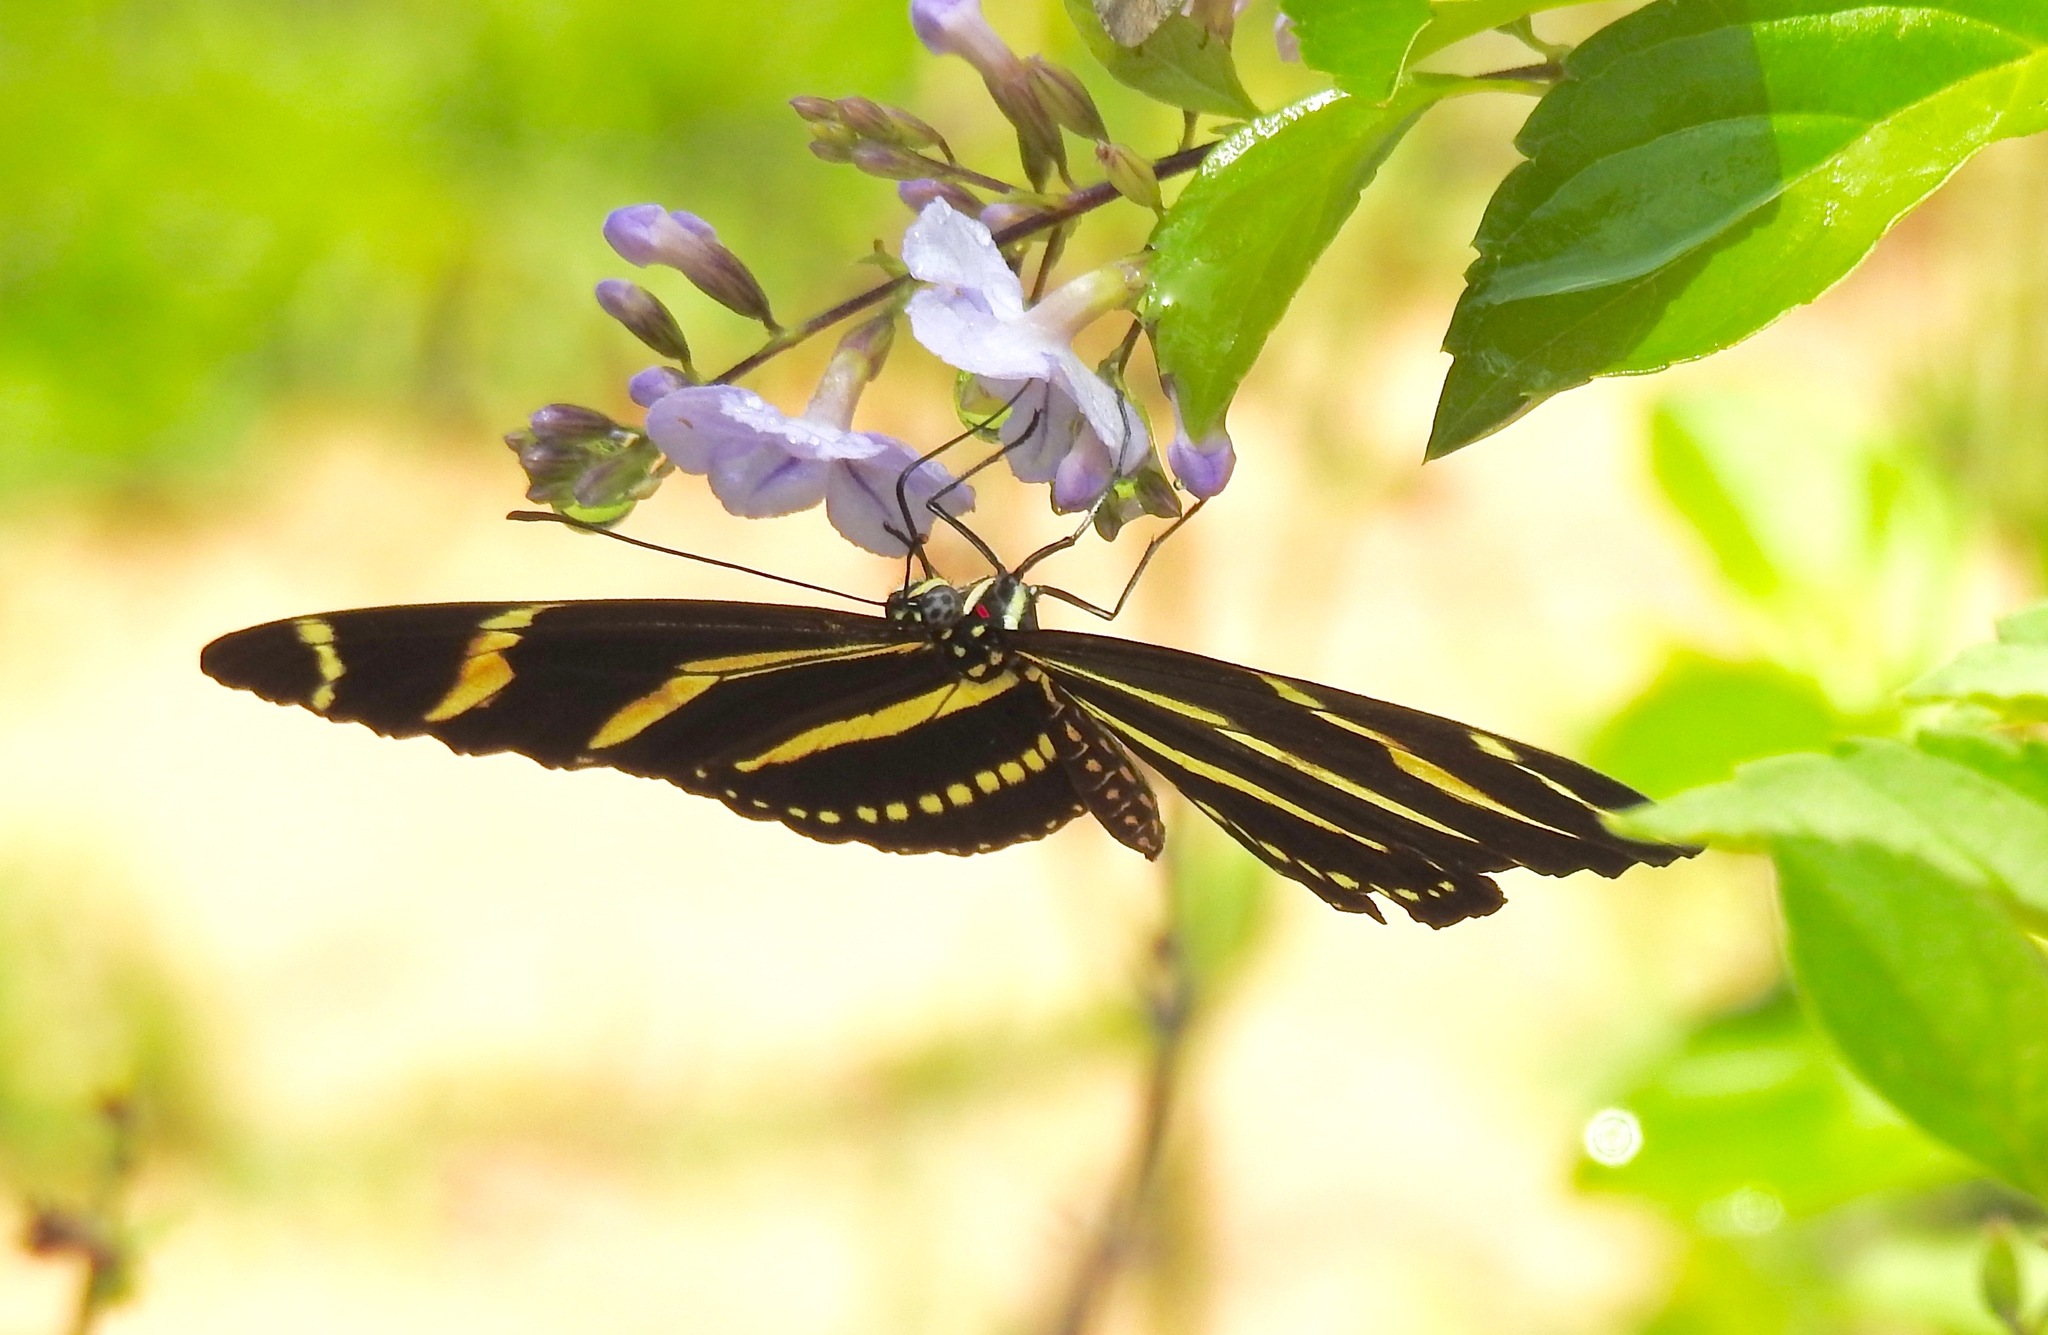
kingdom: Animalia
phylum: Arthropoda
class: Insecta
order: Lepidoptera
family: Nymphalidae
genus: Heliconius
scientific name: Heliconius charithonia
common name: Zebra long wing
